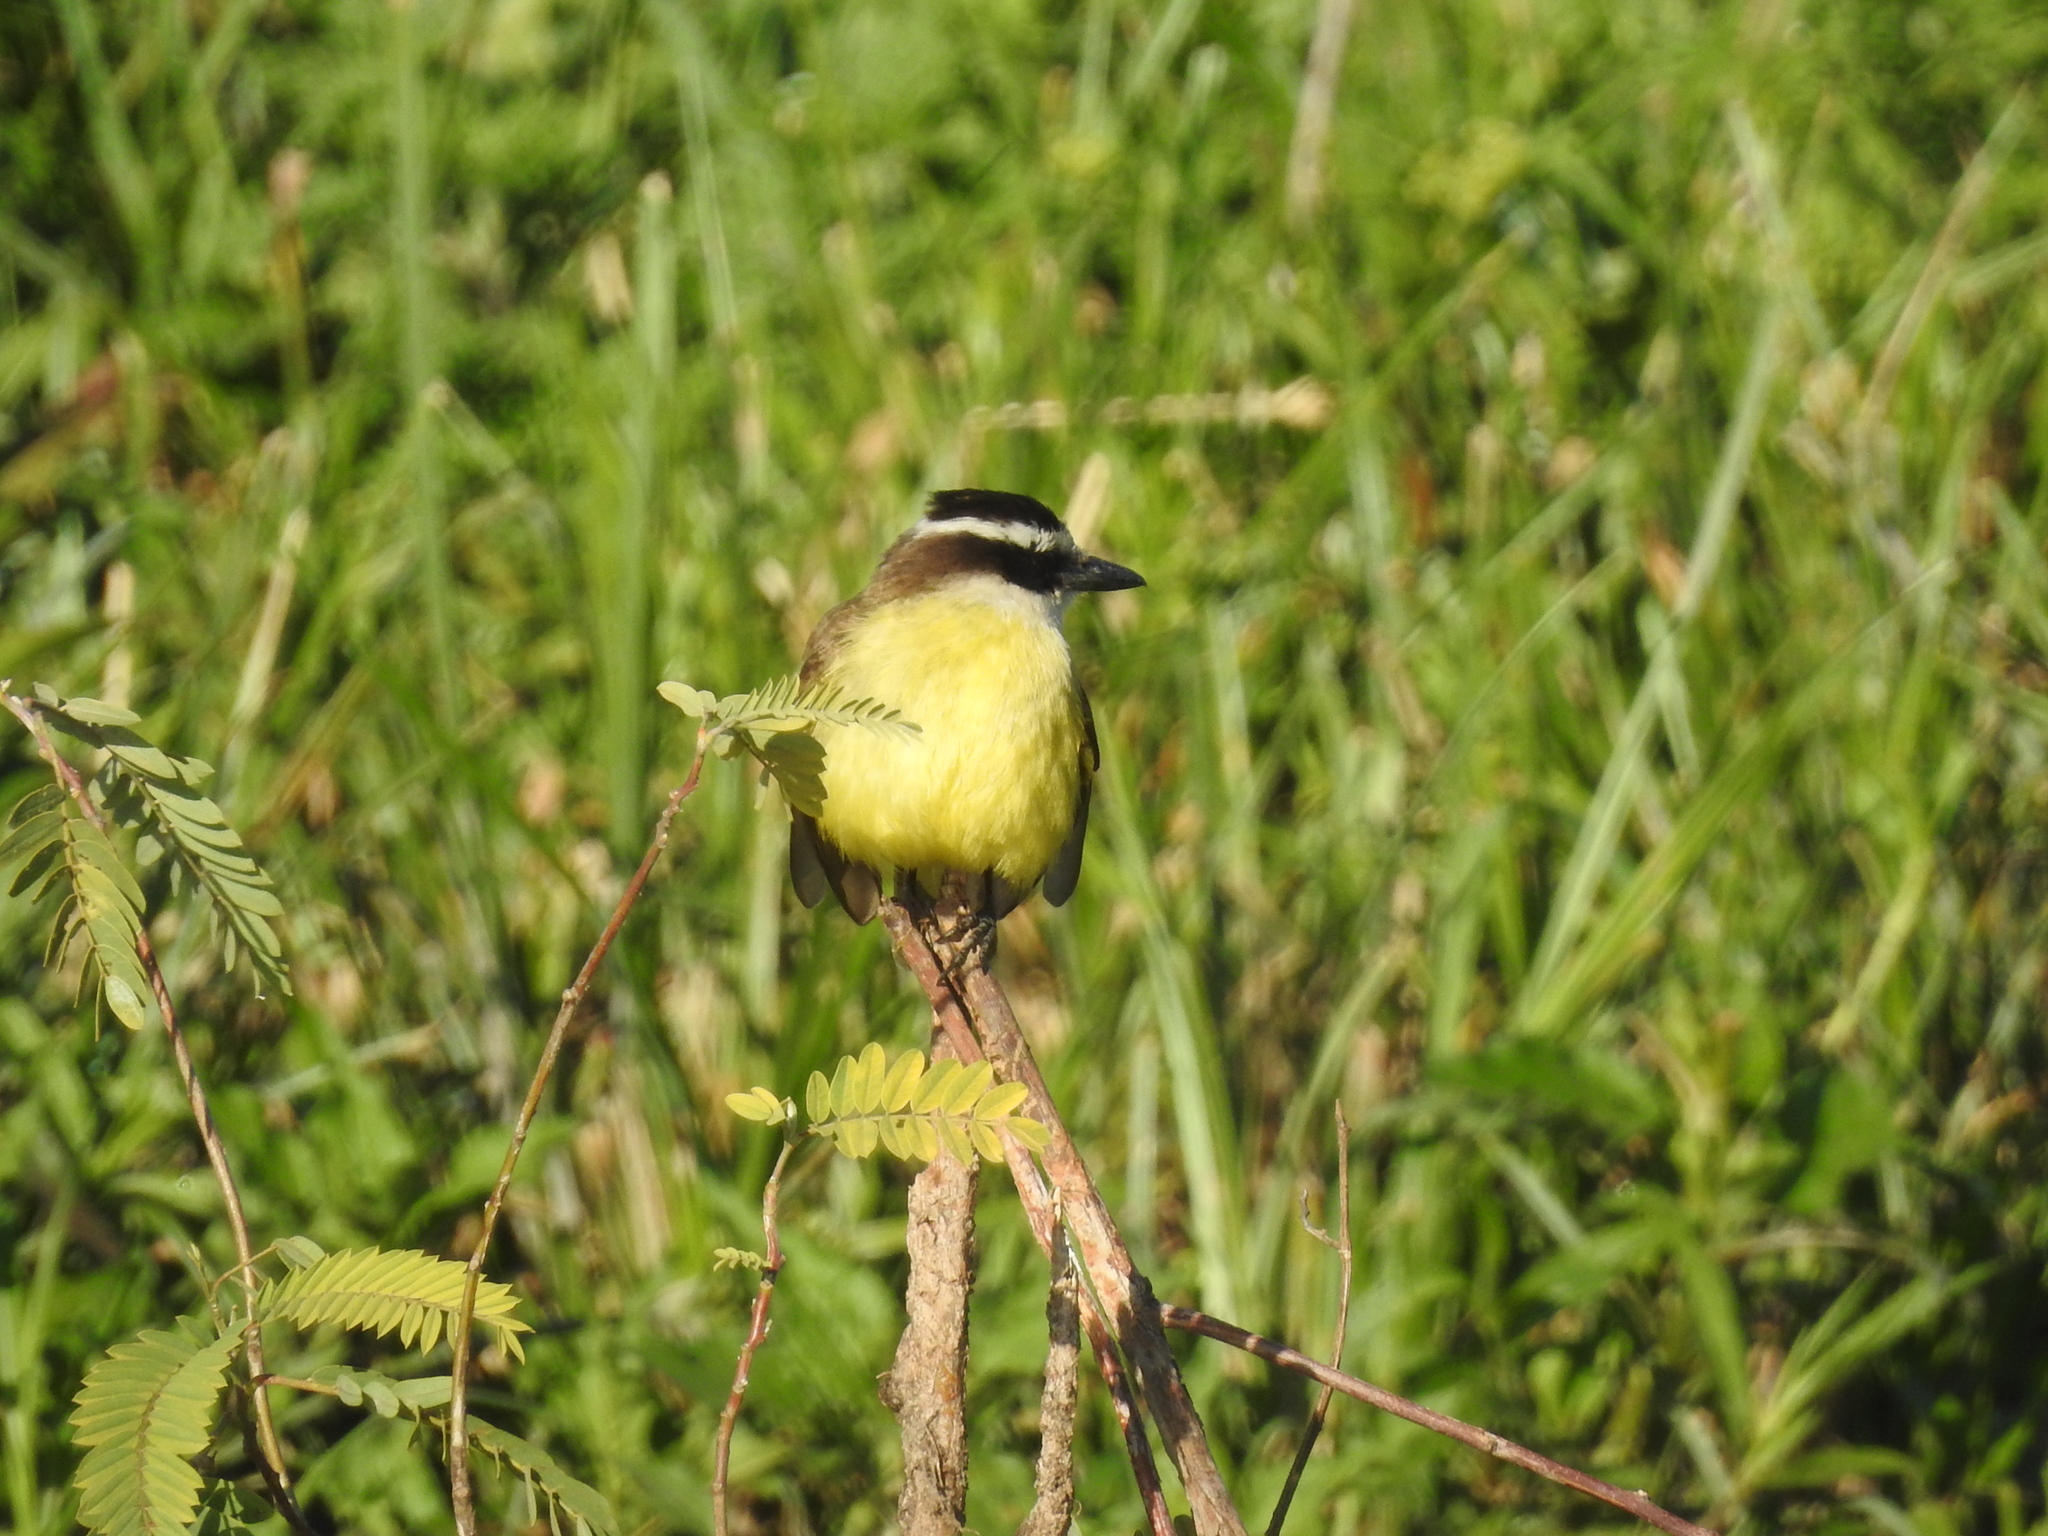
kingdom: Animalia
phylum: Chordata
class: Aves
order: Passeriformes
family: Tyrannidae
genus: Pitangus
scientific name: Pitangus sulphuratus
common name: Great kiskadee
